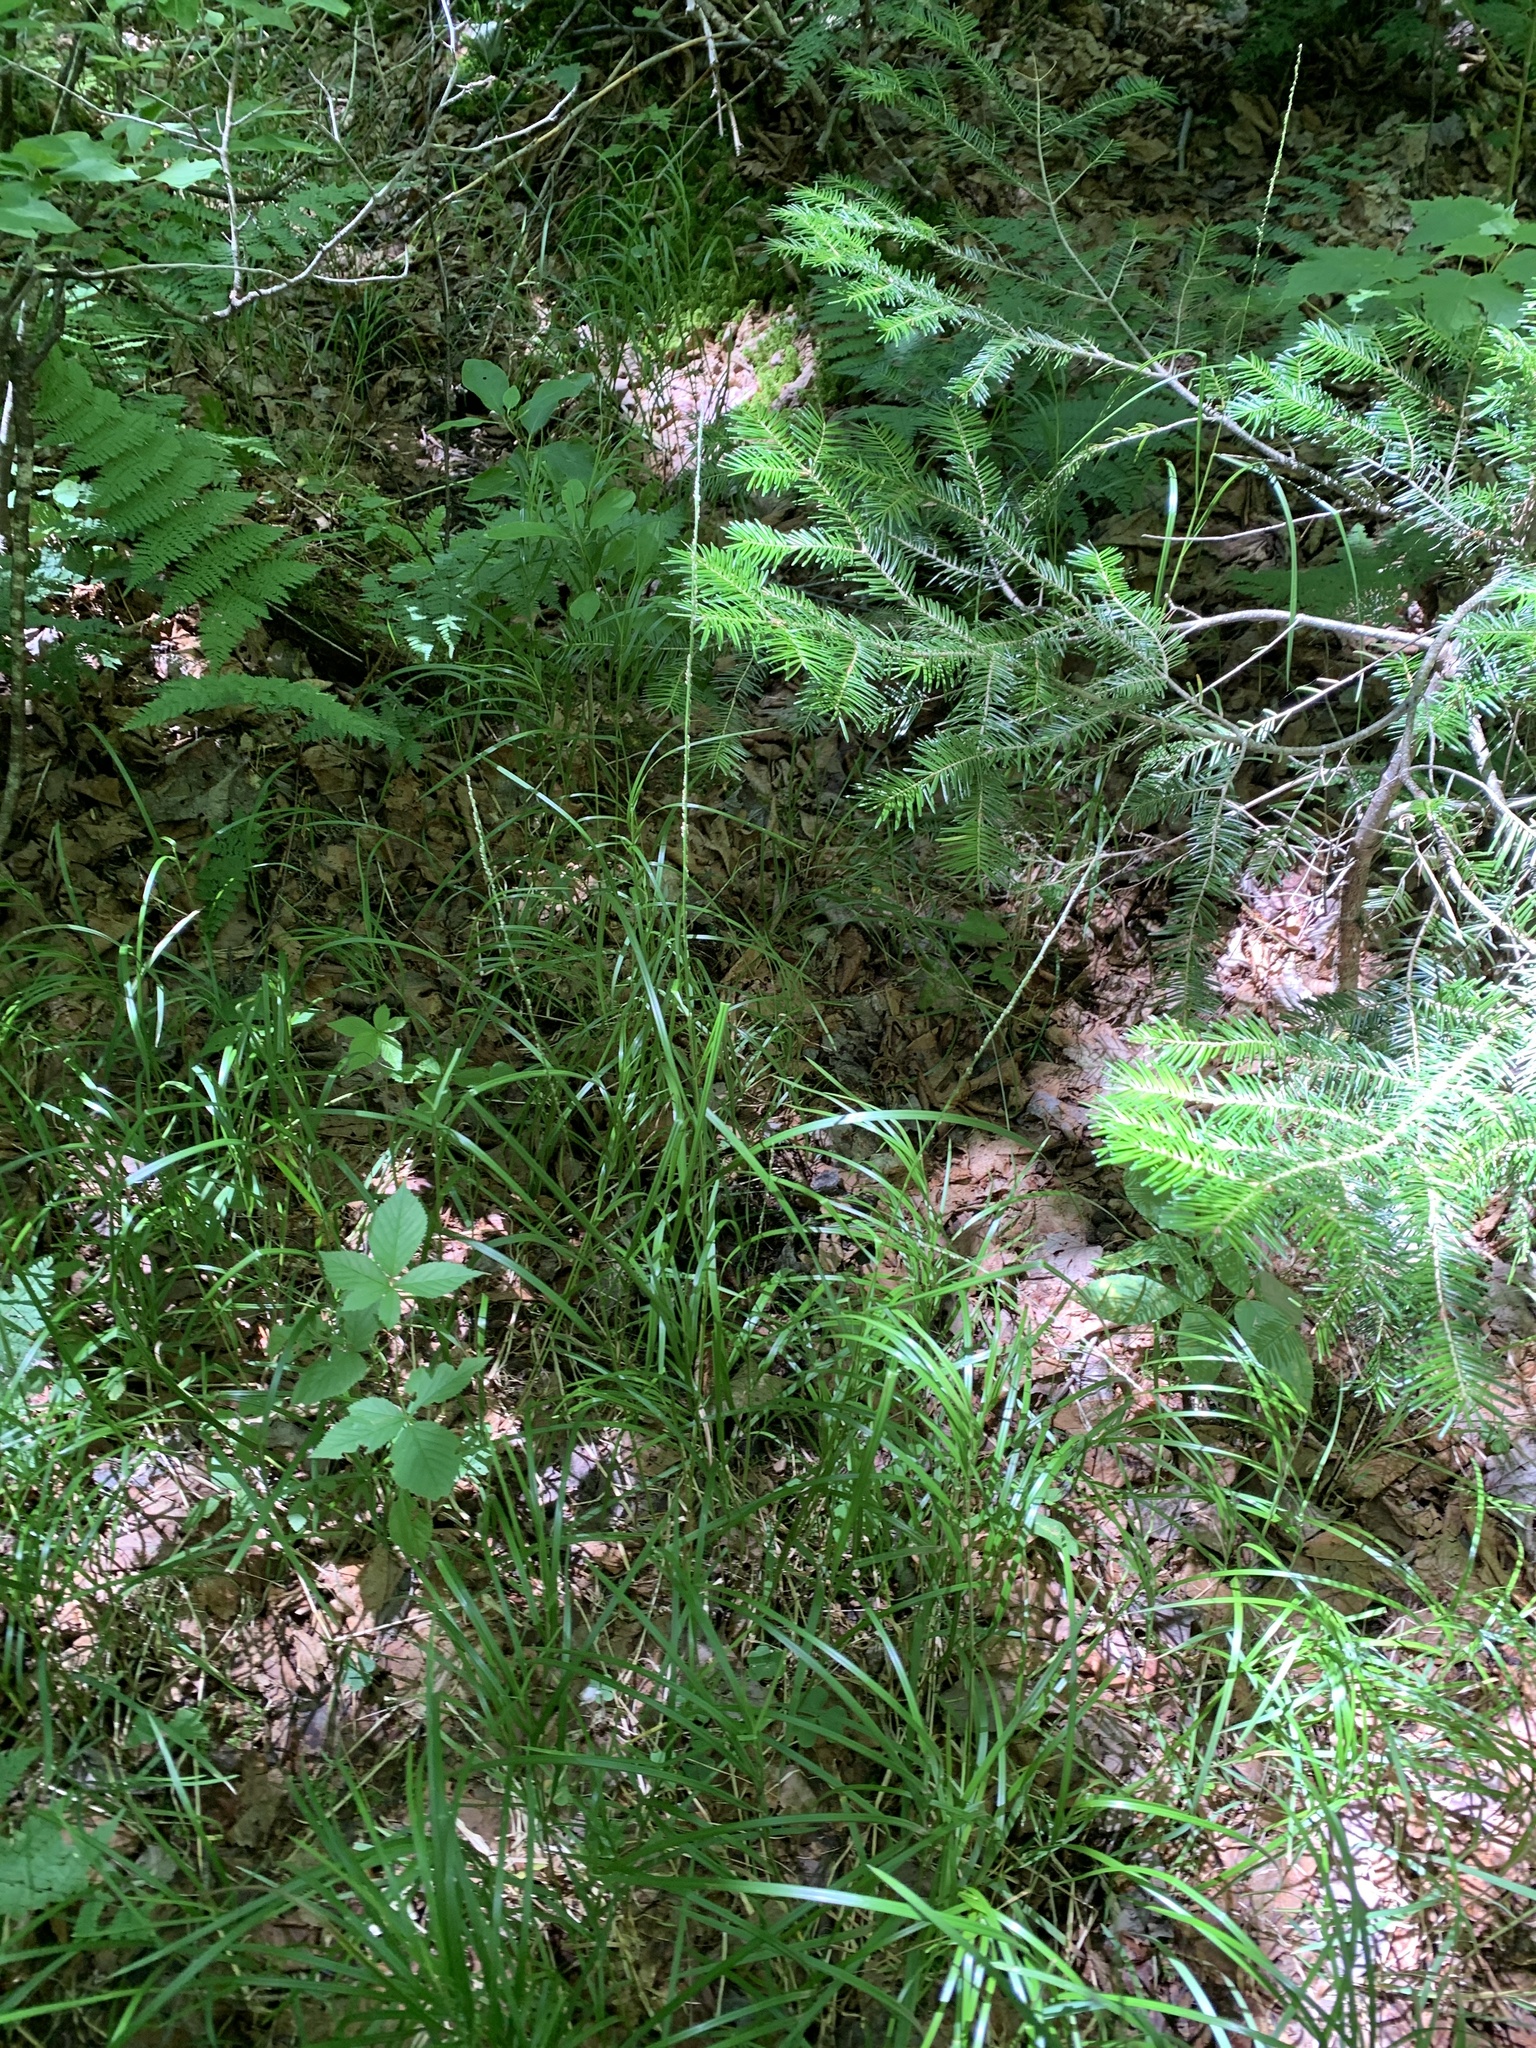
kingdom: Plantae
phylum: Tracheophyta
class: Liliopsida
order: Poales
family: Poaceae
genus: Glyceria
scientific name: Glyceria melicaria
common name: Long mannagrass
